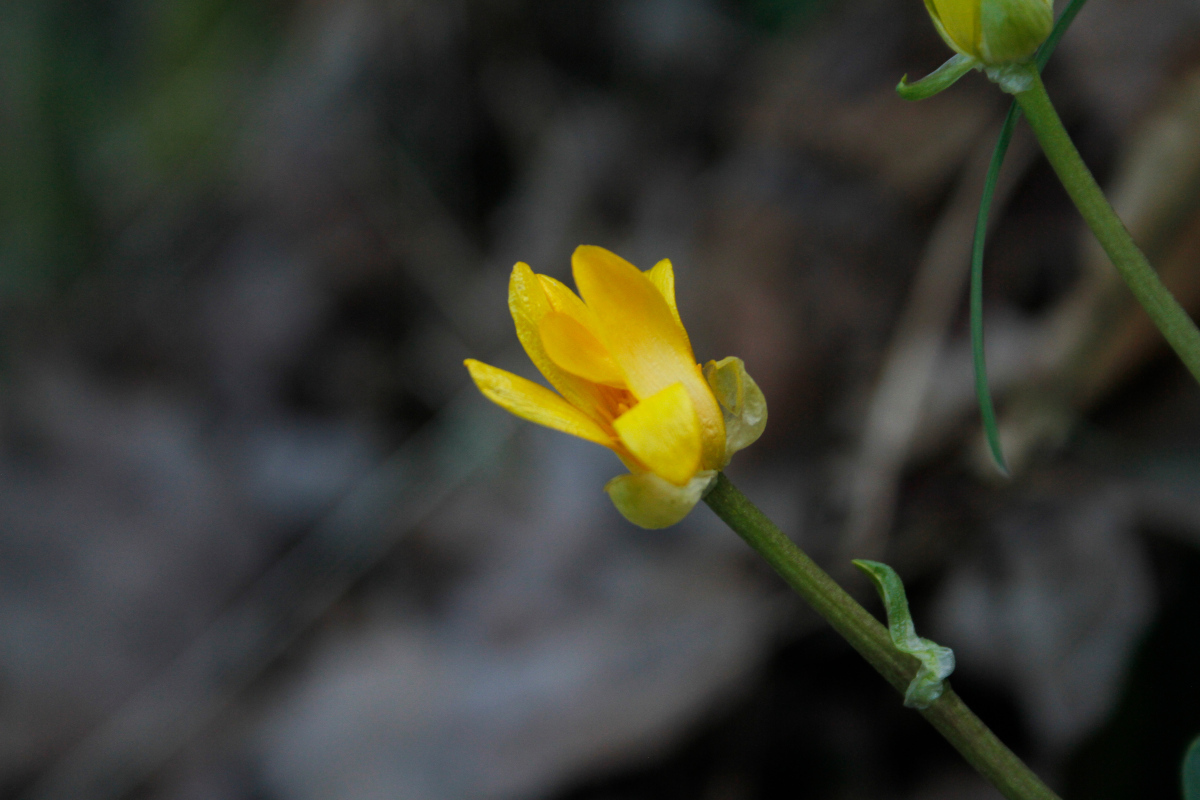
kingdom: Plantae
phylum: Tracheophyta
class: Magnoliopsida
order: Ranunculales
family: Ranunculaceae
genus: Ficaria
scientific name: Ficaria verna
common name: Lesser celandine
